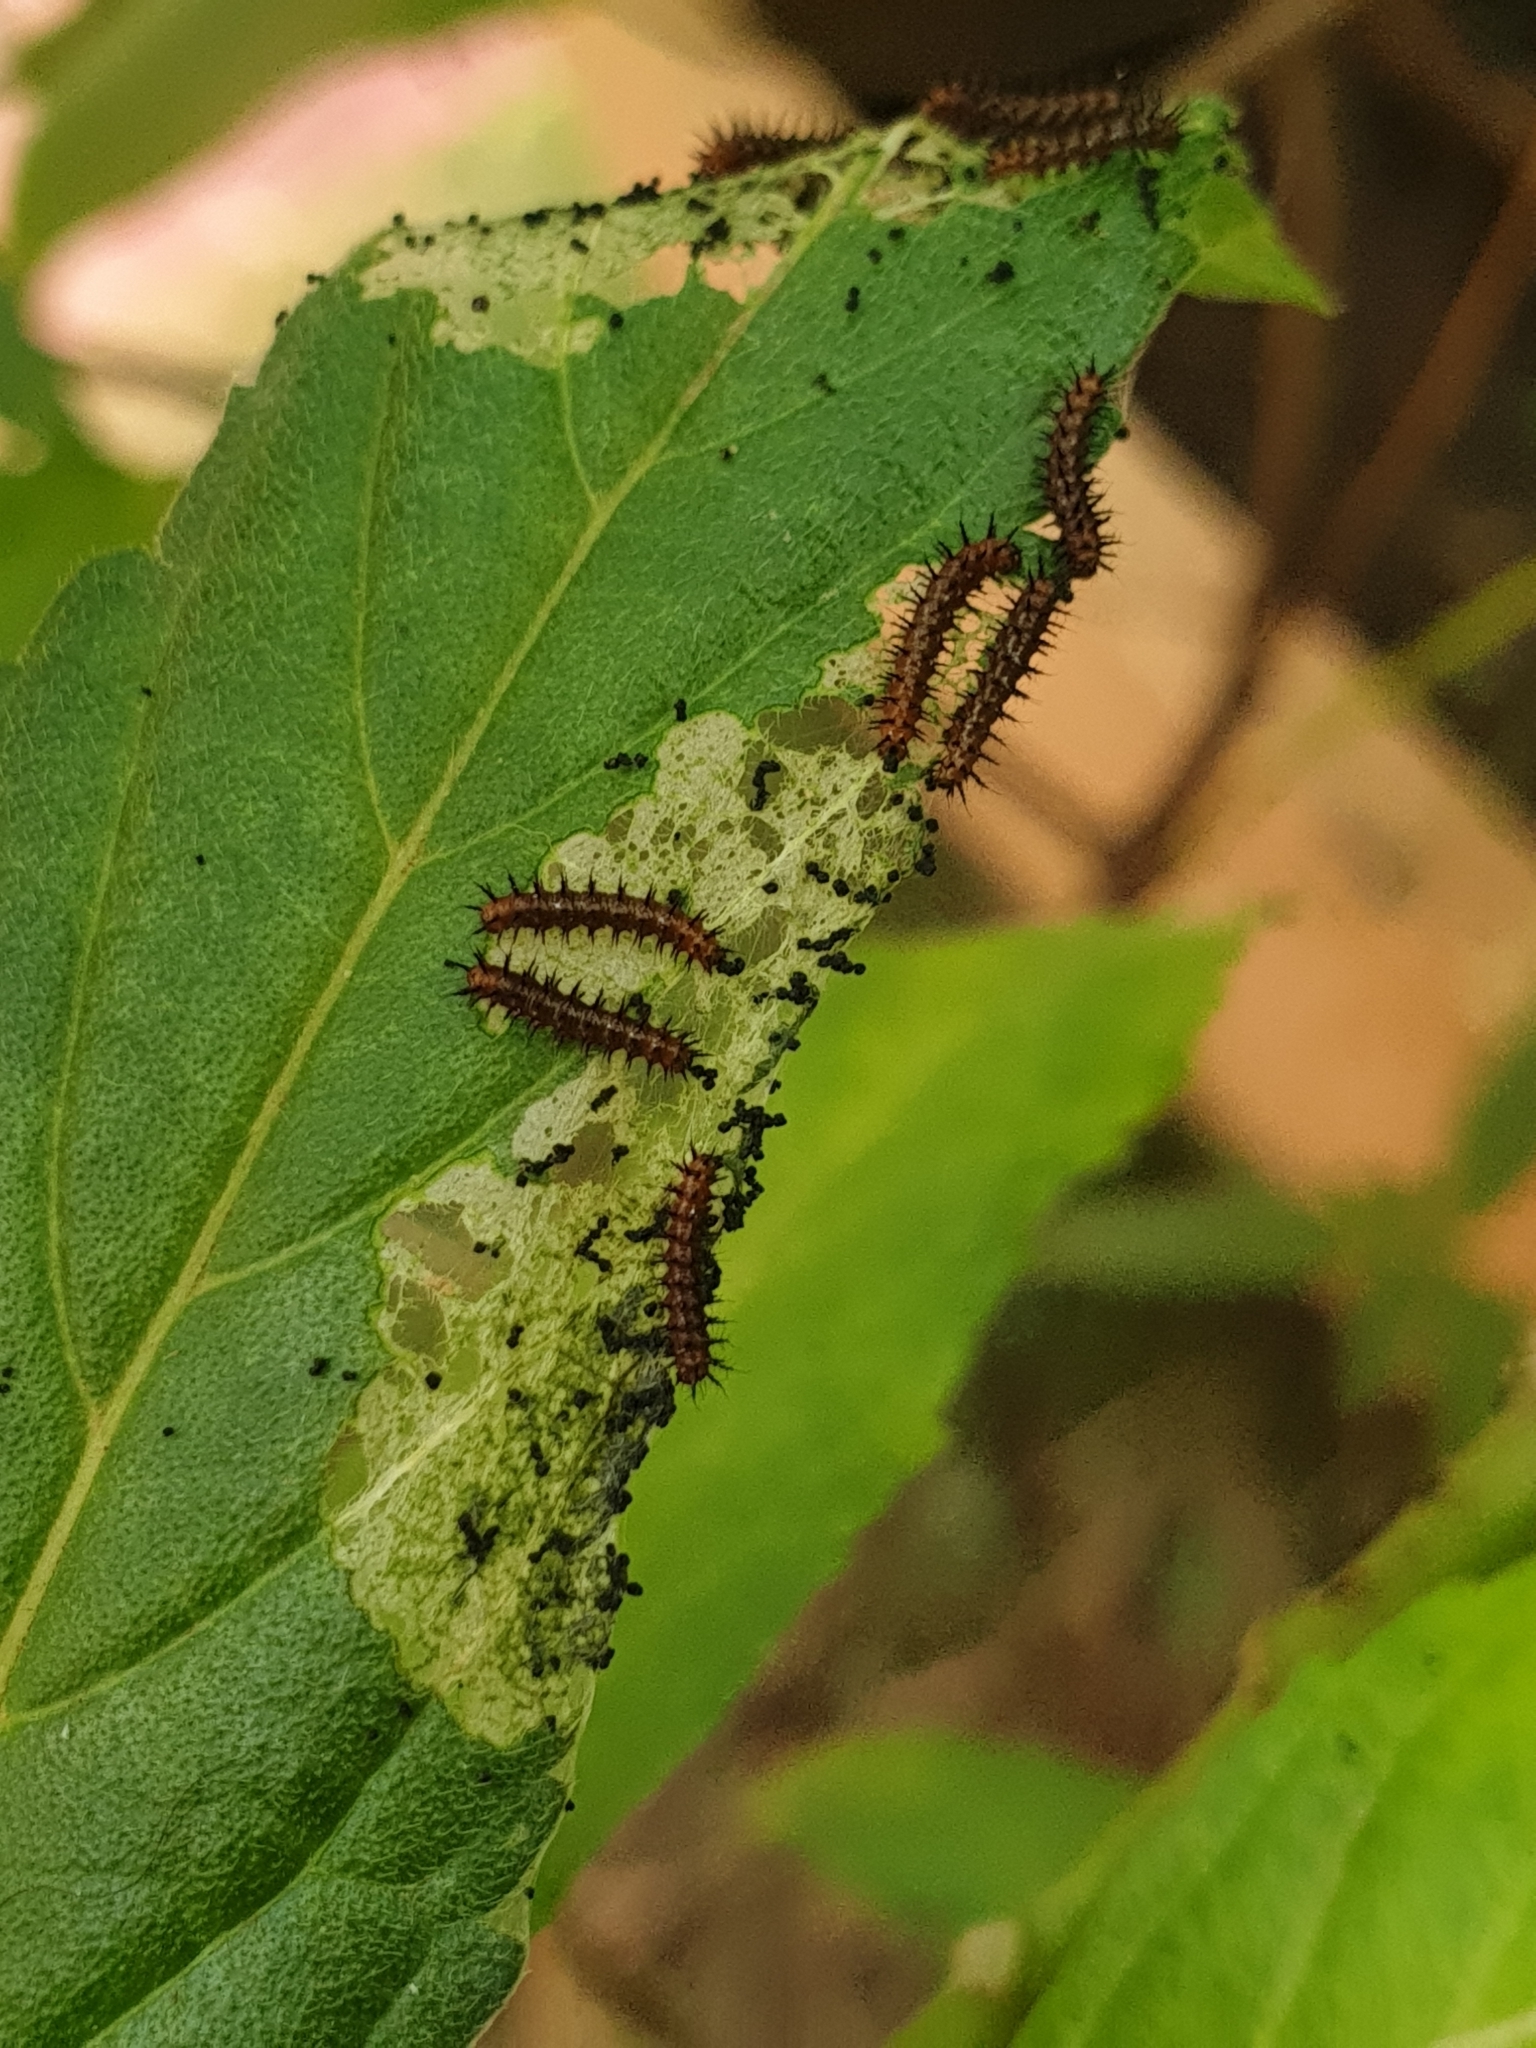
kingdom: Animalia
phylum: Arthropoda
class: Insecta
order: Lepidoptera
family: Nymphalidae
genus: Acraea
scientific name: Acraea terpsicore
